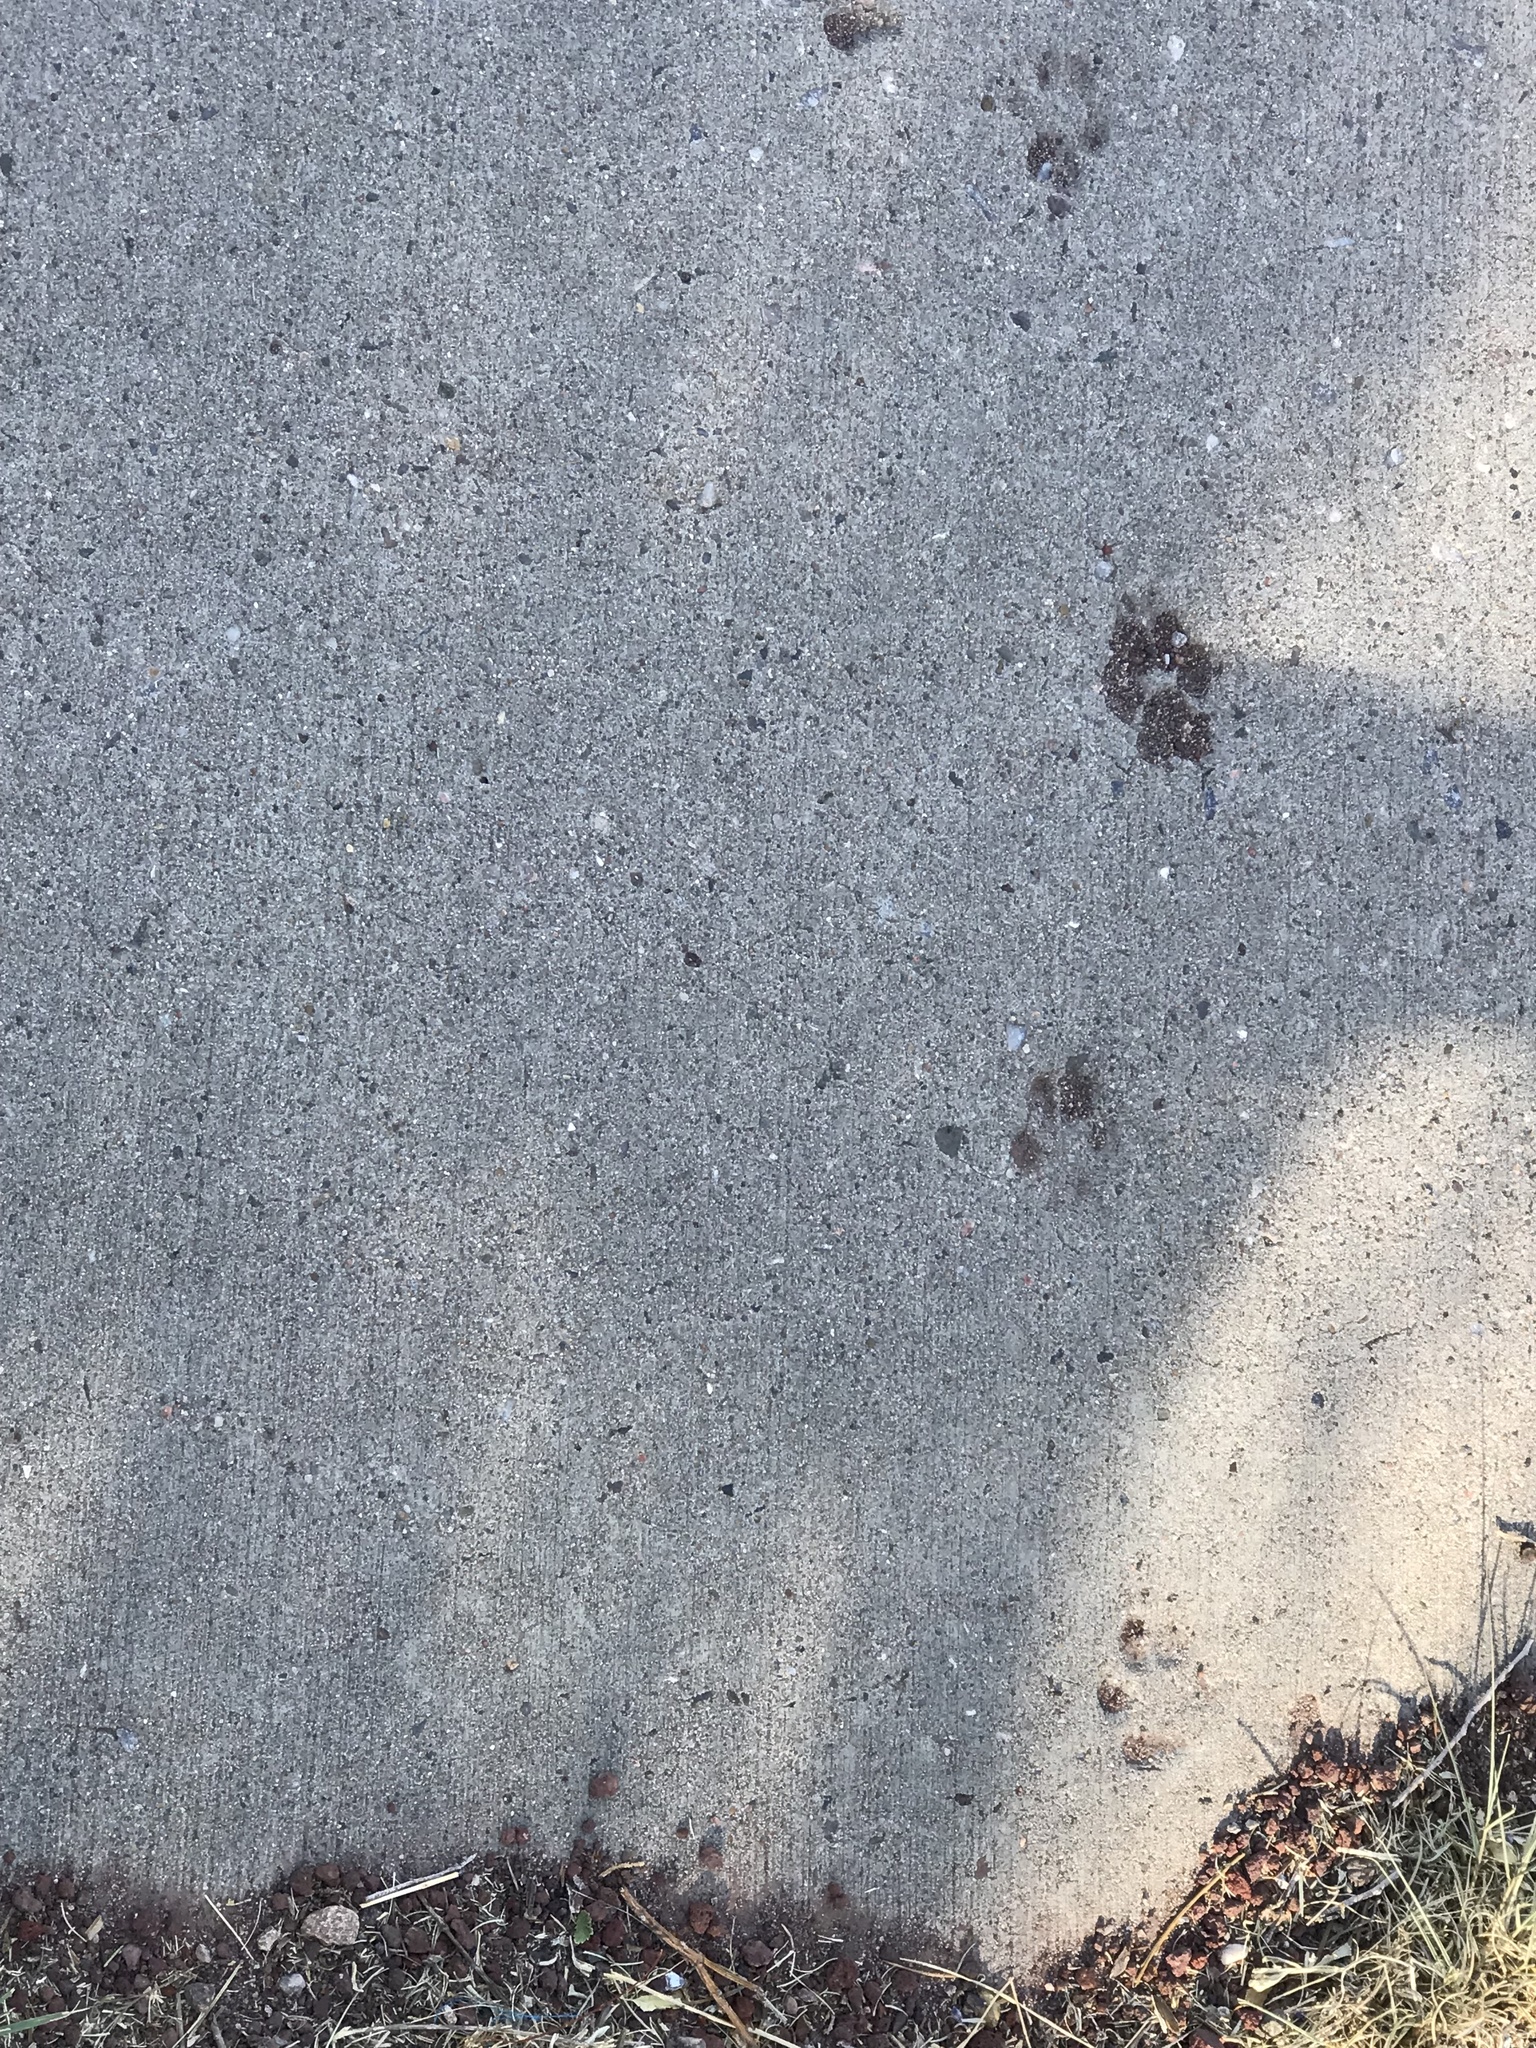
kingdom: Animalia
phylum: Chordata
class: Mammalia
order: Carnivora
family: Canidae
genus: Canis
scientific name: Canis latrans
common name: Coyote
